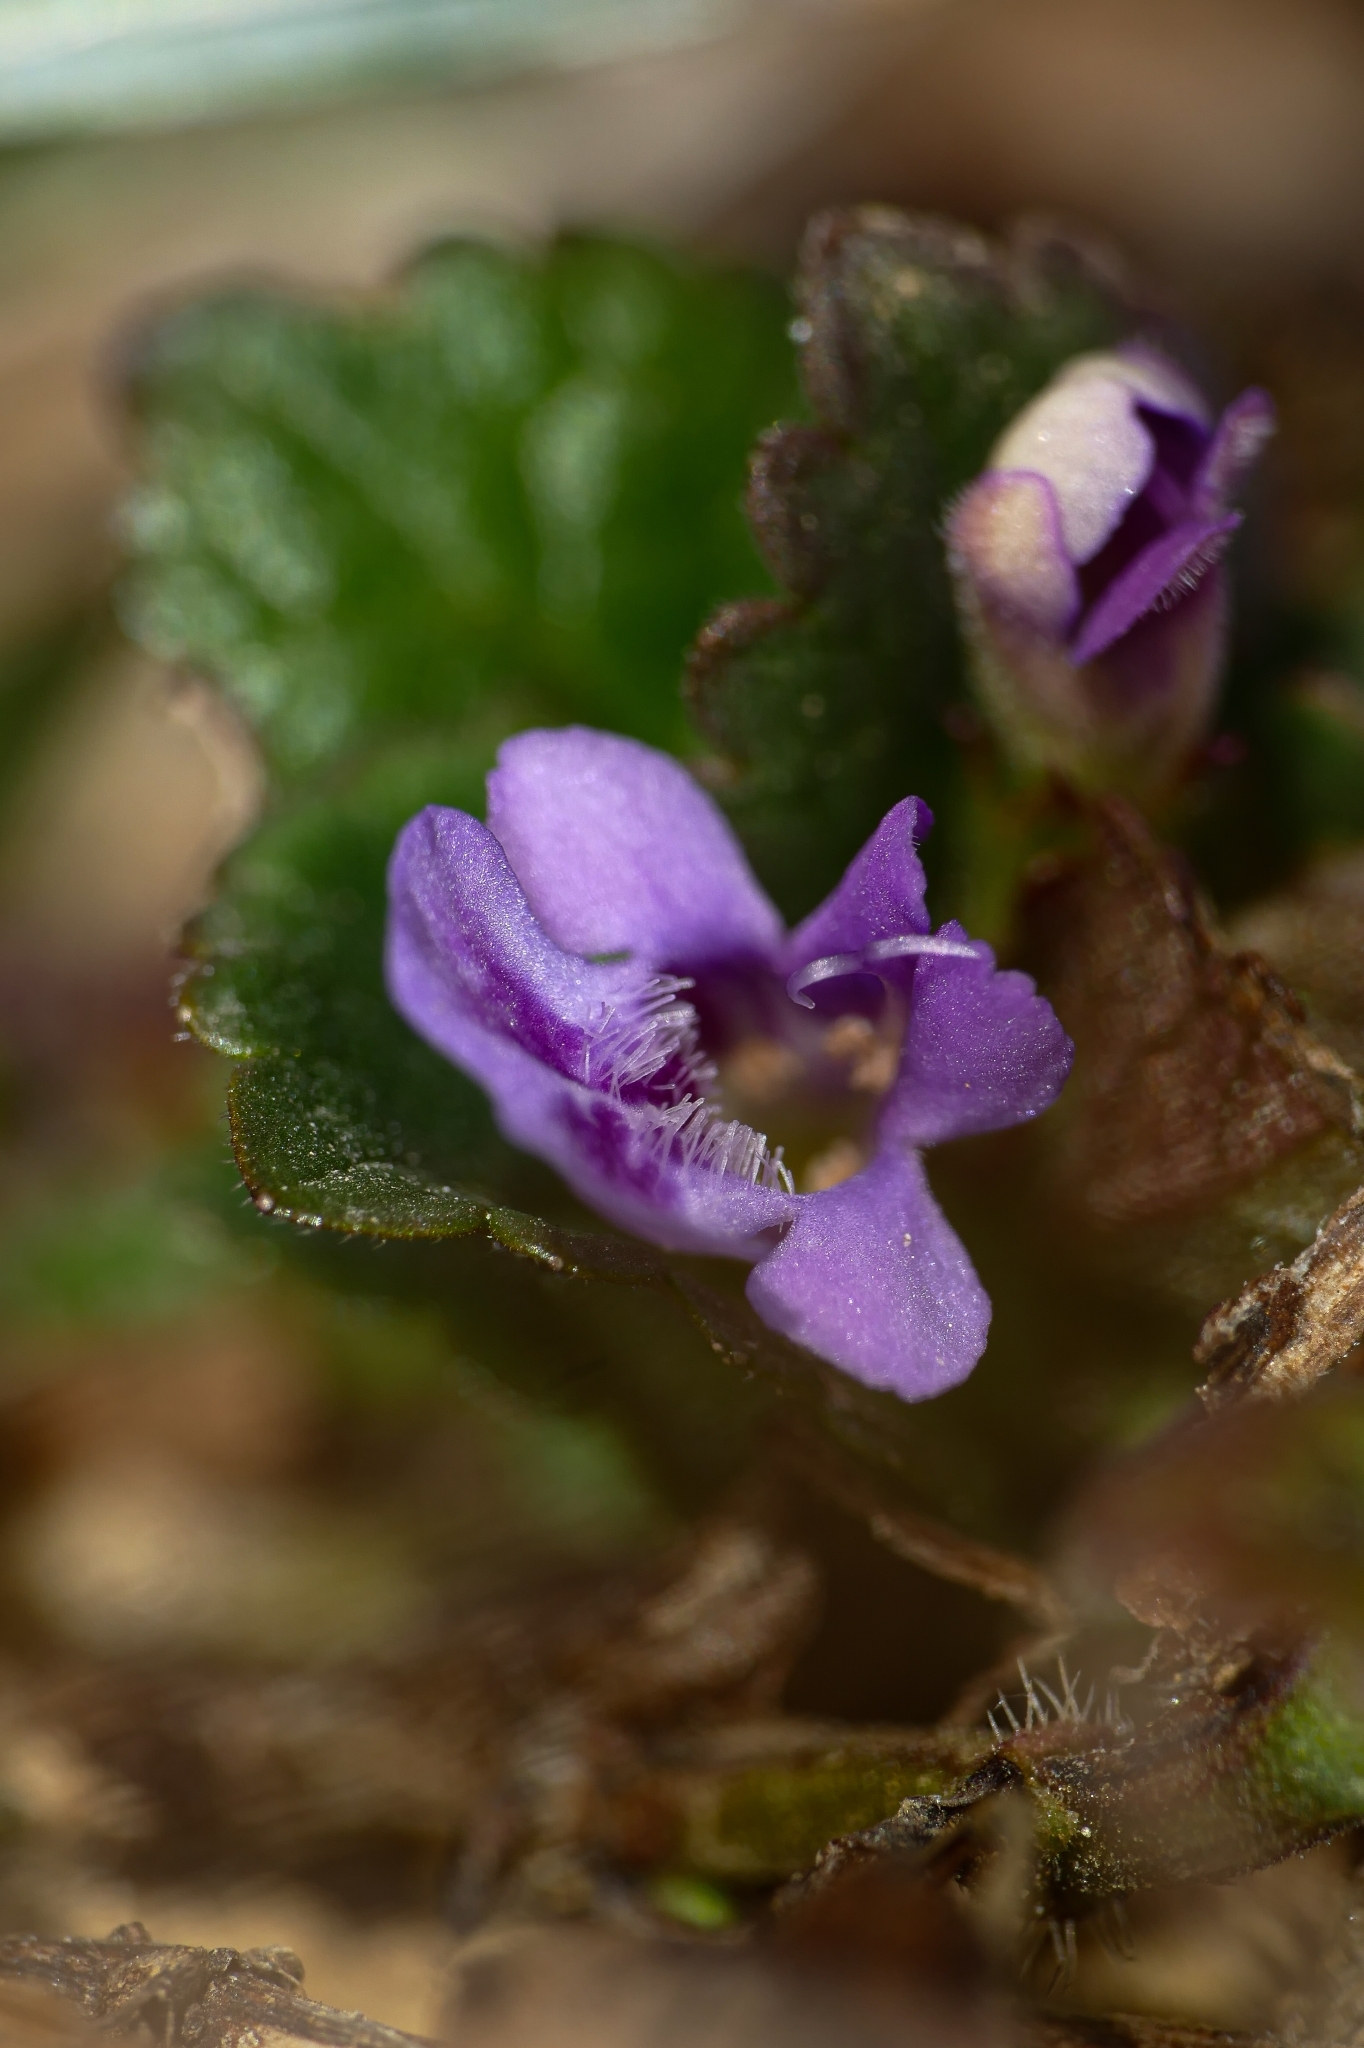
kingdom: Plantae
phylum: Tracheophyta
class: Magnoliopsida
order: Lamiales
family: Lamiaceae
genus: Glechoma
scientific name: Glechoma hederacea
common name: Ground ivy
